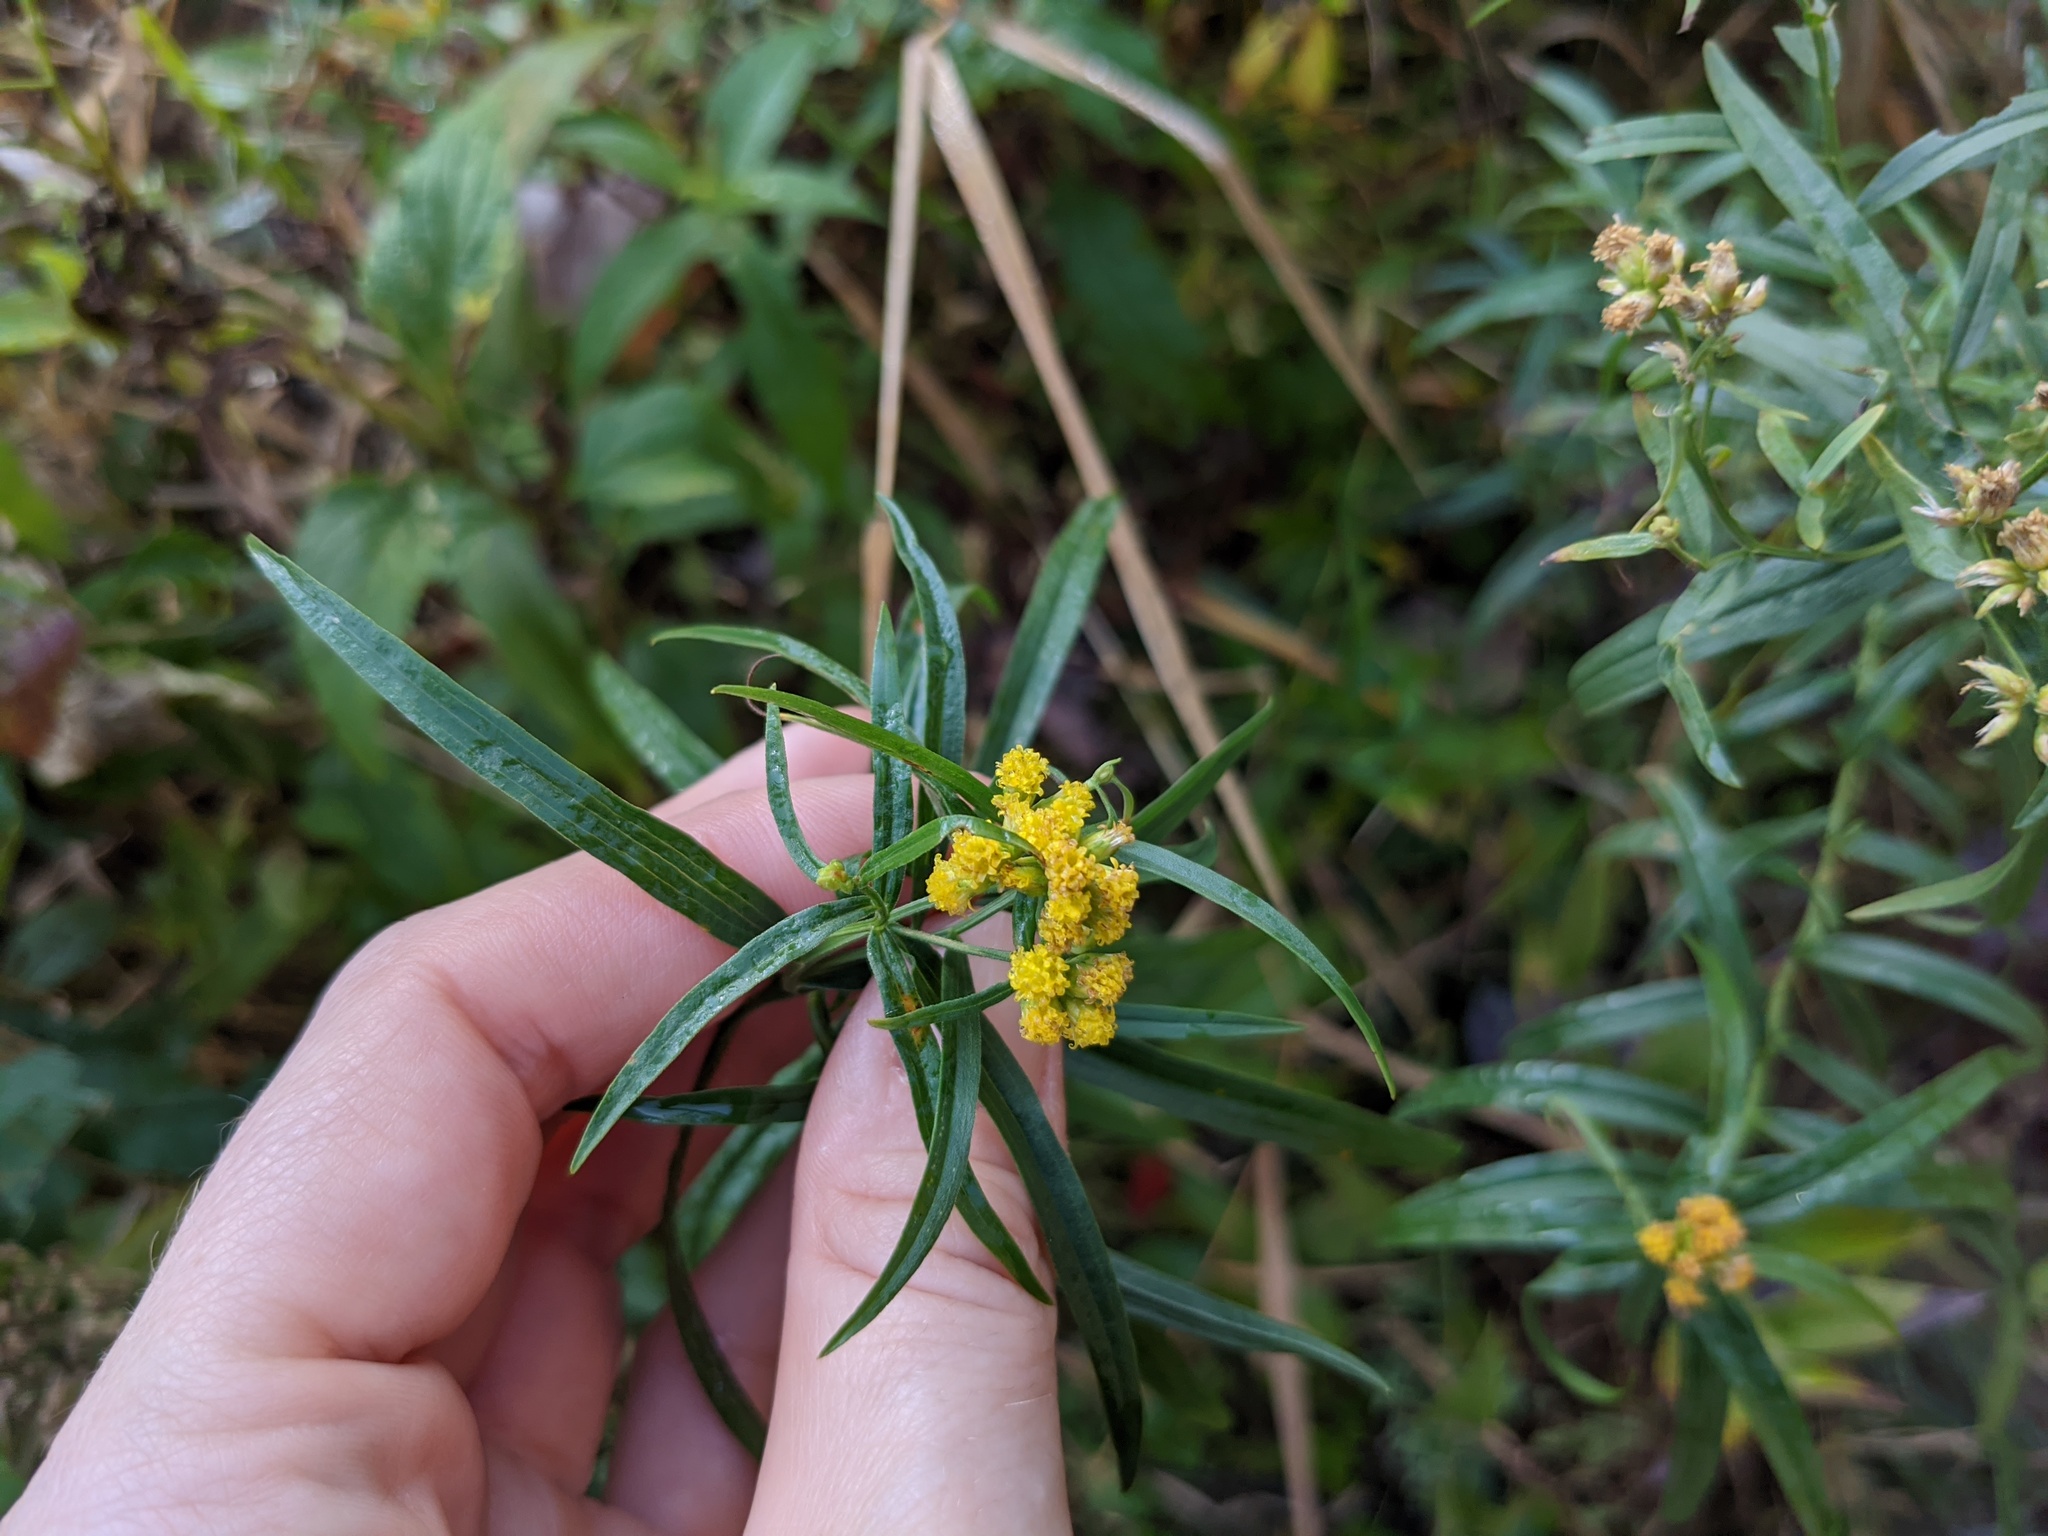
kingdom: Plantae
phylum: Tracheophyta
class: Magnoliopsida
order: Asterales
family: Asteraceae
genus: Euthamia
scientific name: Euthamia graminifolia
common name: Common goldentop
